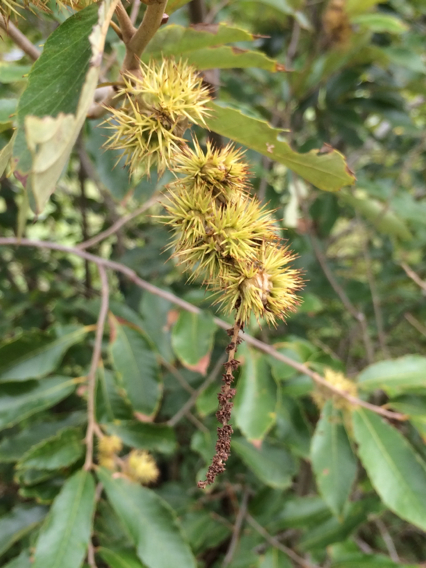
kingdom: Plantae
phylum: Tracheophyta
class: Magnoliopsida
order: Fagales
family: Fagaceae
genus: Castanea
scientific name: Castanea pumila
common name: Chinkapin
